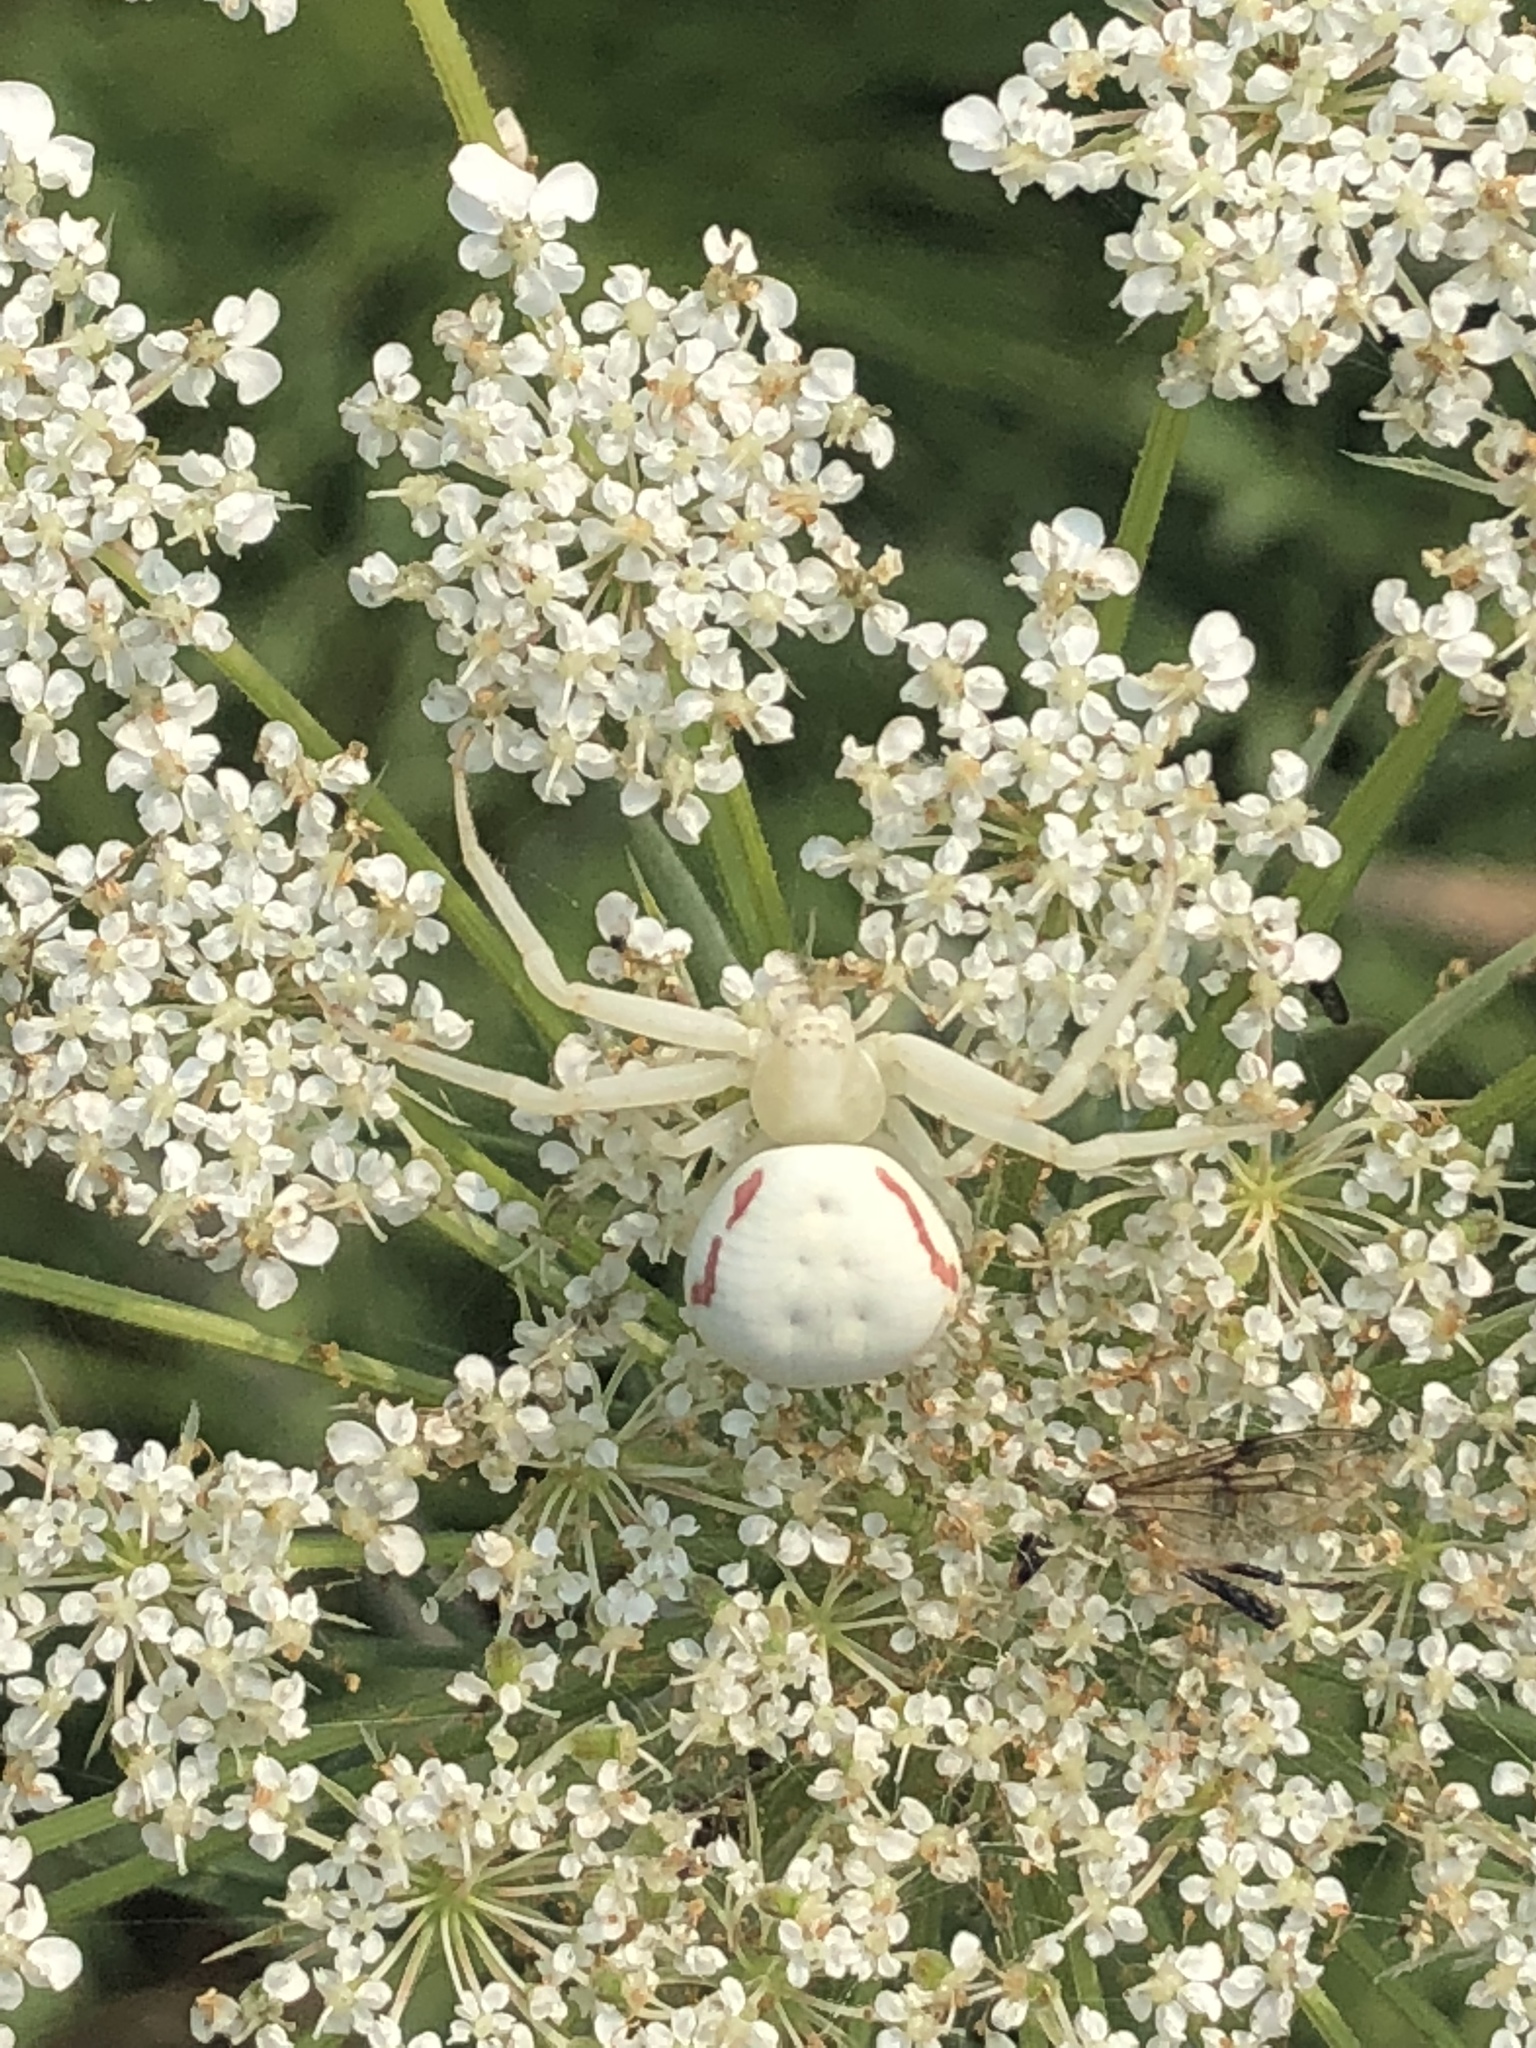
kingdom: Animalia
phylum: Arthropoda
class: Arachnida
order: Araneae
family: Thomisidae
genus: Misumena
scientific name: Misumena vatia
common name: Goldenrod crab spider
